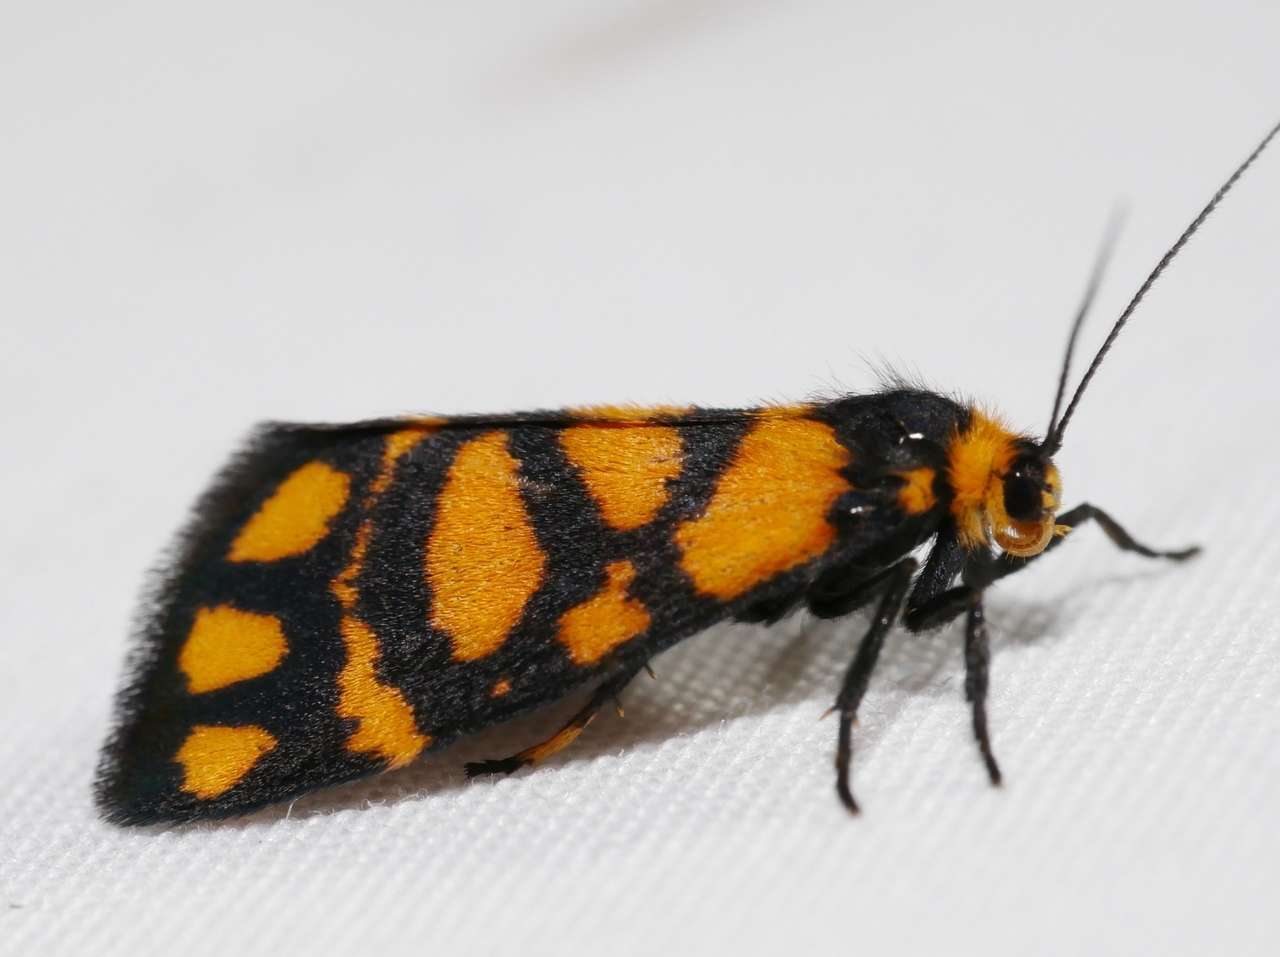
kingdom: Animalia
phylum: Arthropoda
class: Insecta
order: Lepidoptera
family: Erebidae
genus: Asura
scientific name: Asura lydia
